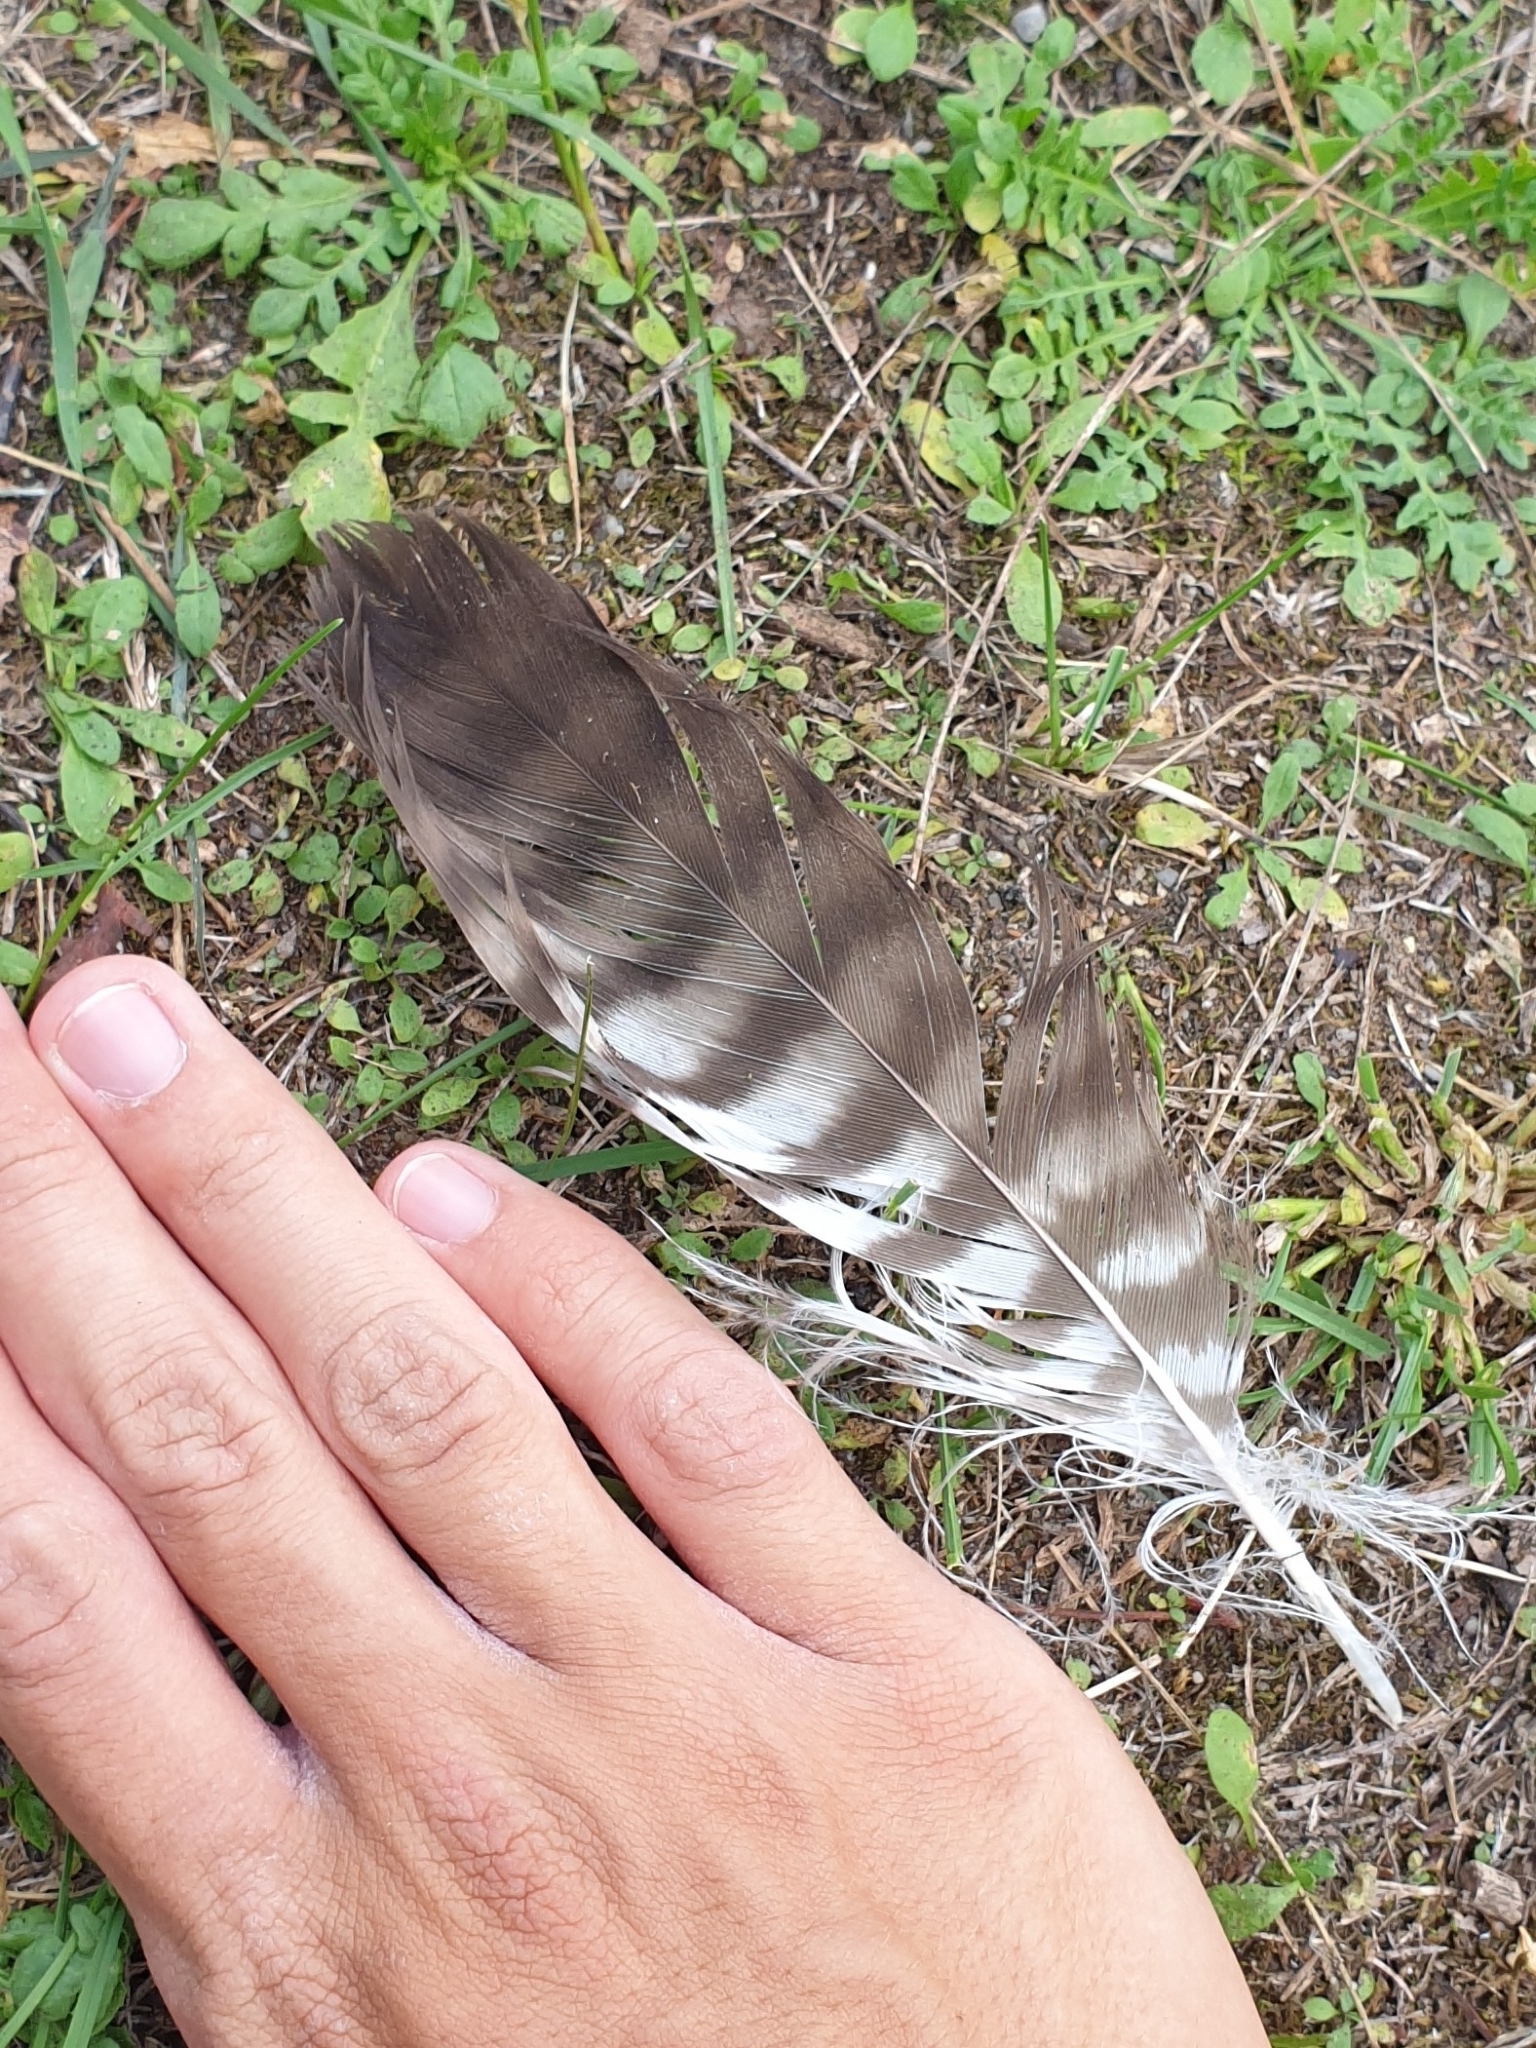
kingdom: Animalia
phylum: Chordata
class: Aves
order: Accipitriformes
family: Accipitridae
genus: Buteo
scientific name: Buteo buteo
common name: Common buzzard
